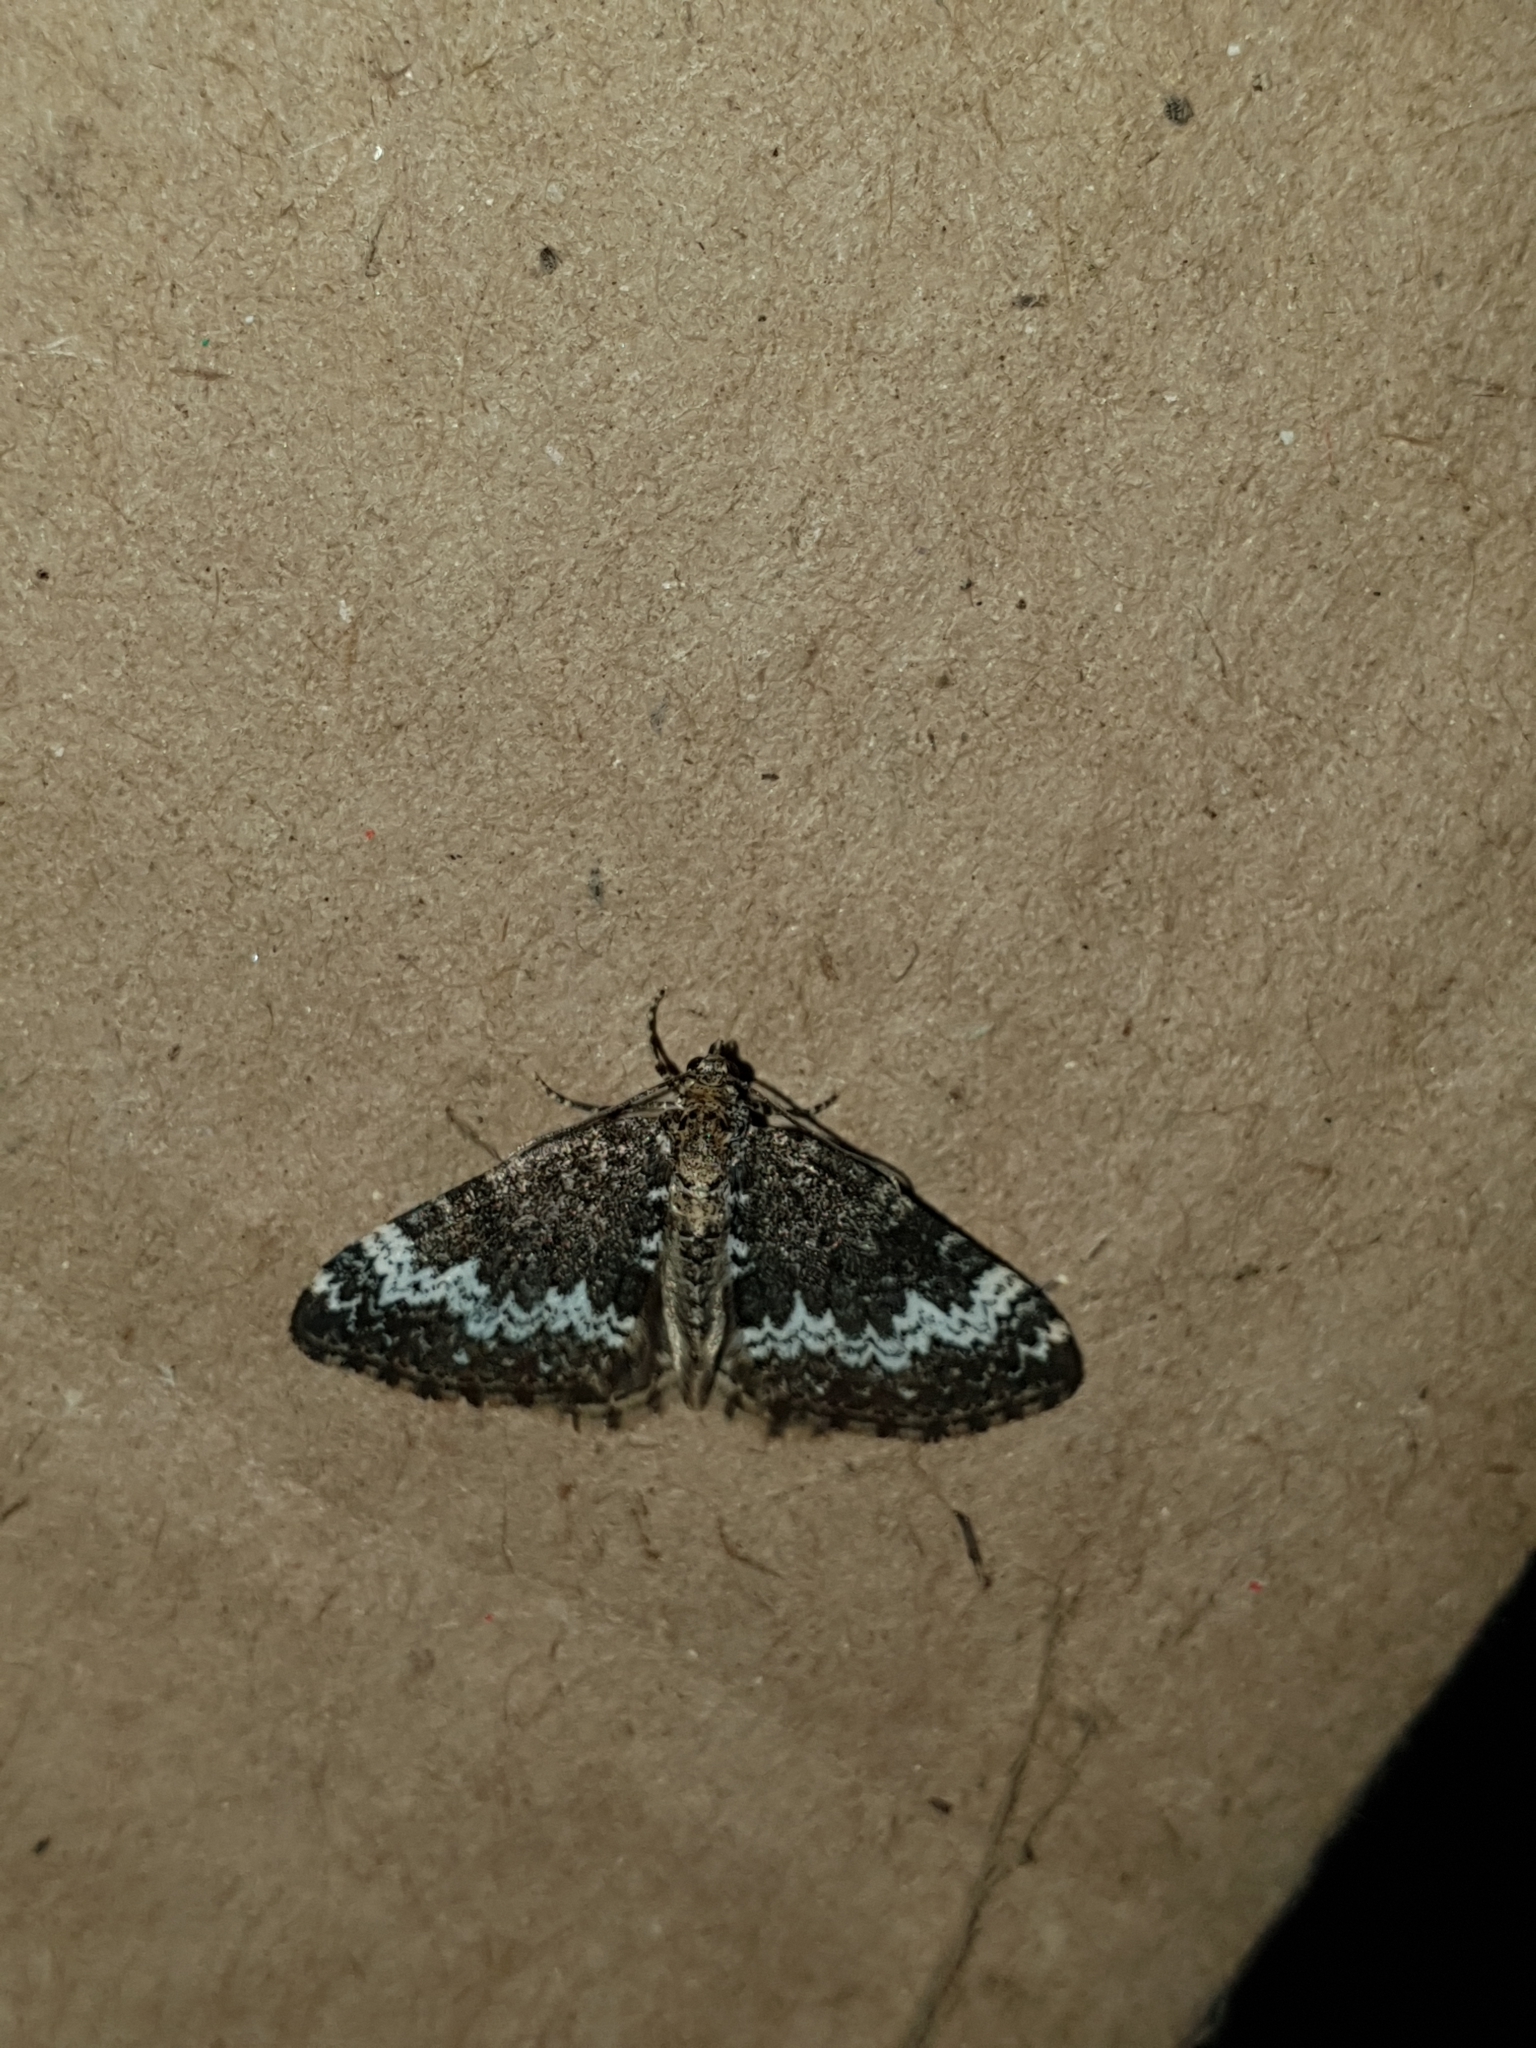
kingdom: Animalia
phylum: Arthropoda
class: Insecta
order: Lepidoptera
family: Geometridae
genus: Perizoma
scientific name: Perizoma alchemillata
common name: Small rivulet
